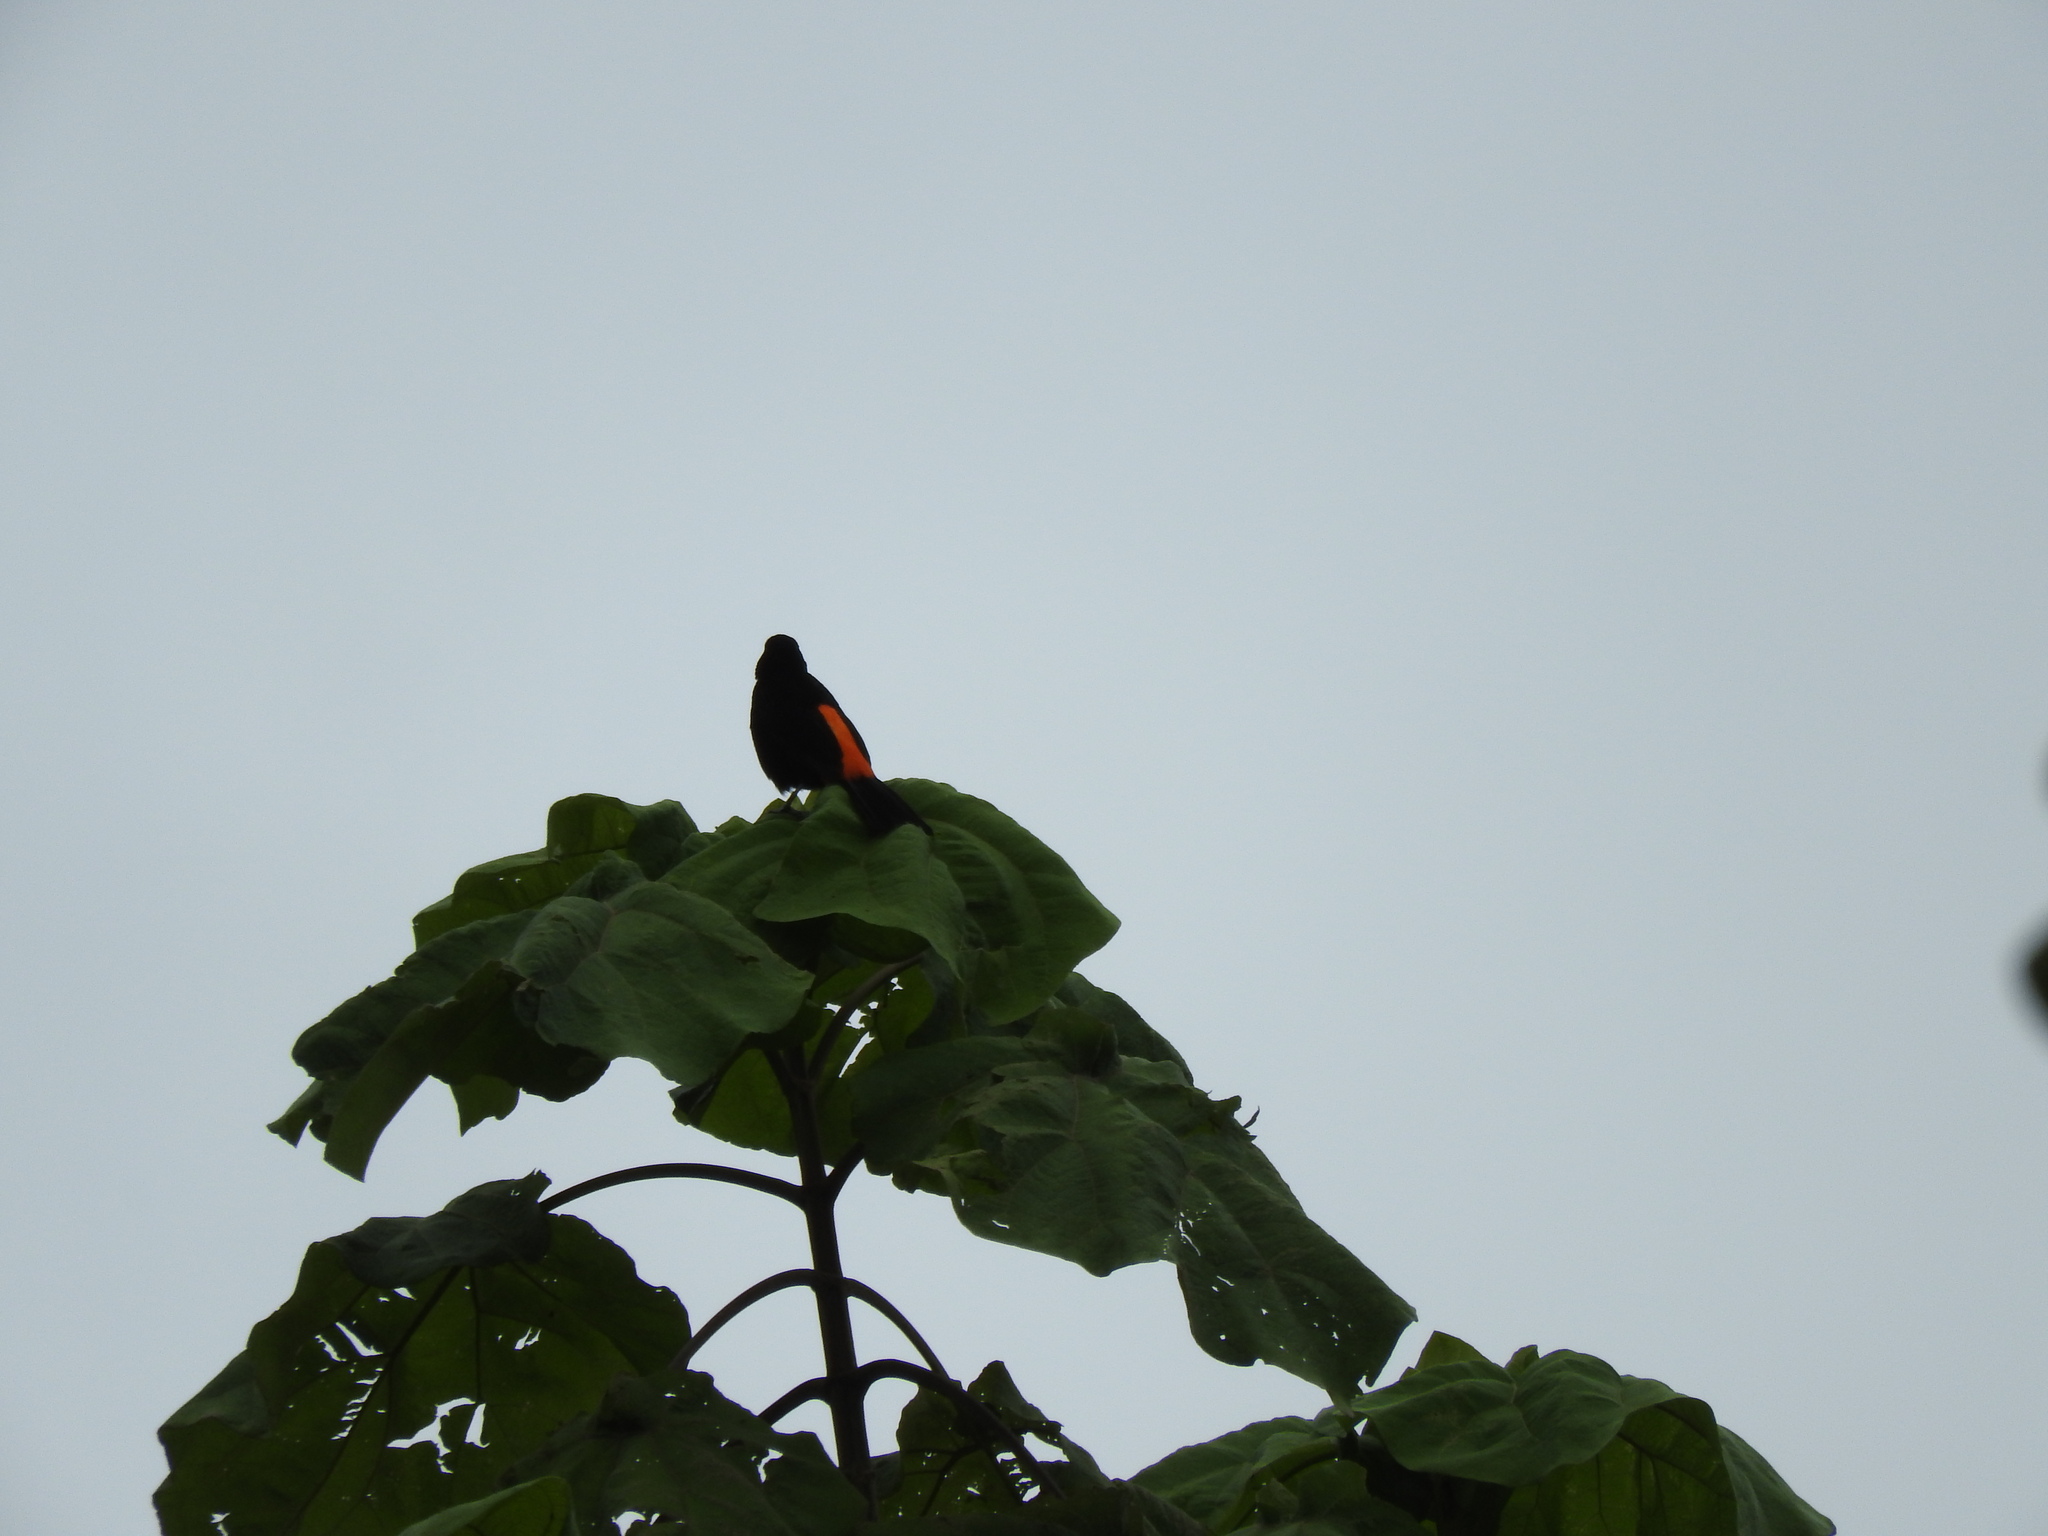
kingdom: Animalia
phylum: Chordata
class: Aves
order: Passeriformes
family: Thraupidae
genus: Ramphocelus
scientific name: Ramphocelus flammigerus
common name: Flame-rumped tanager
